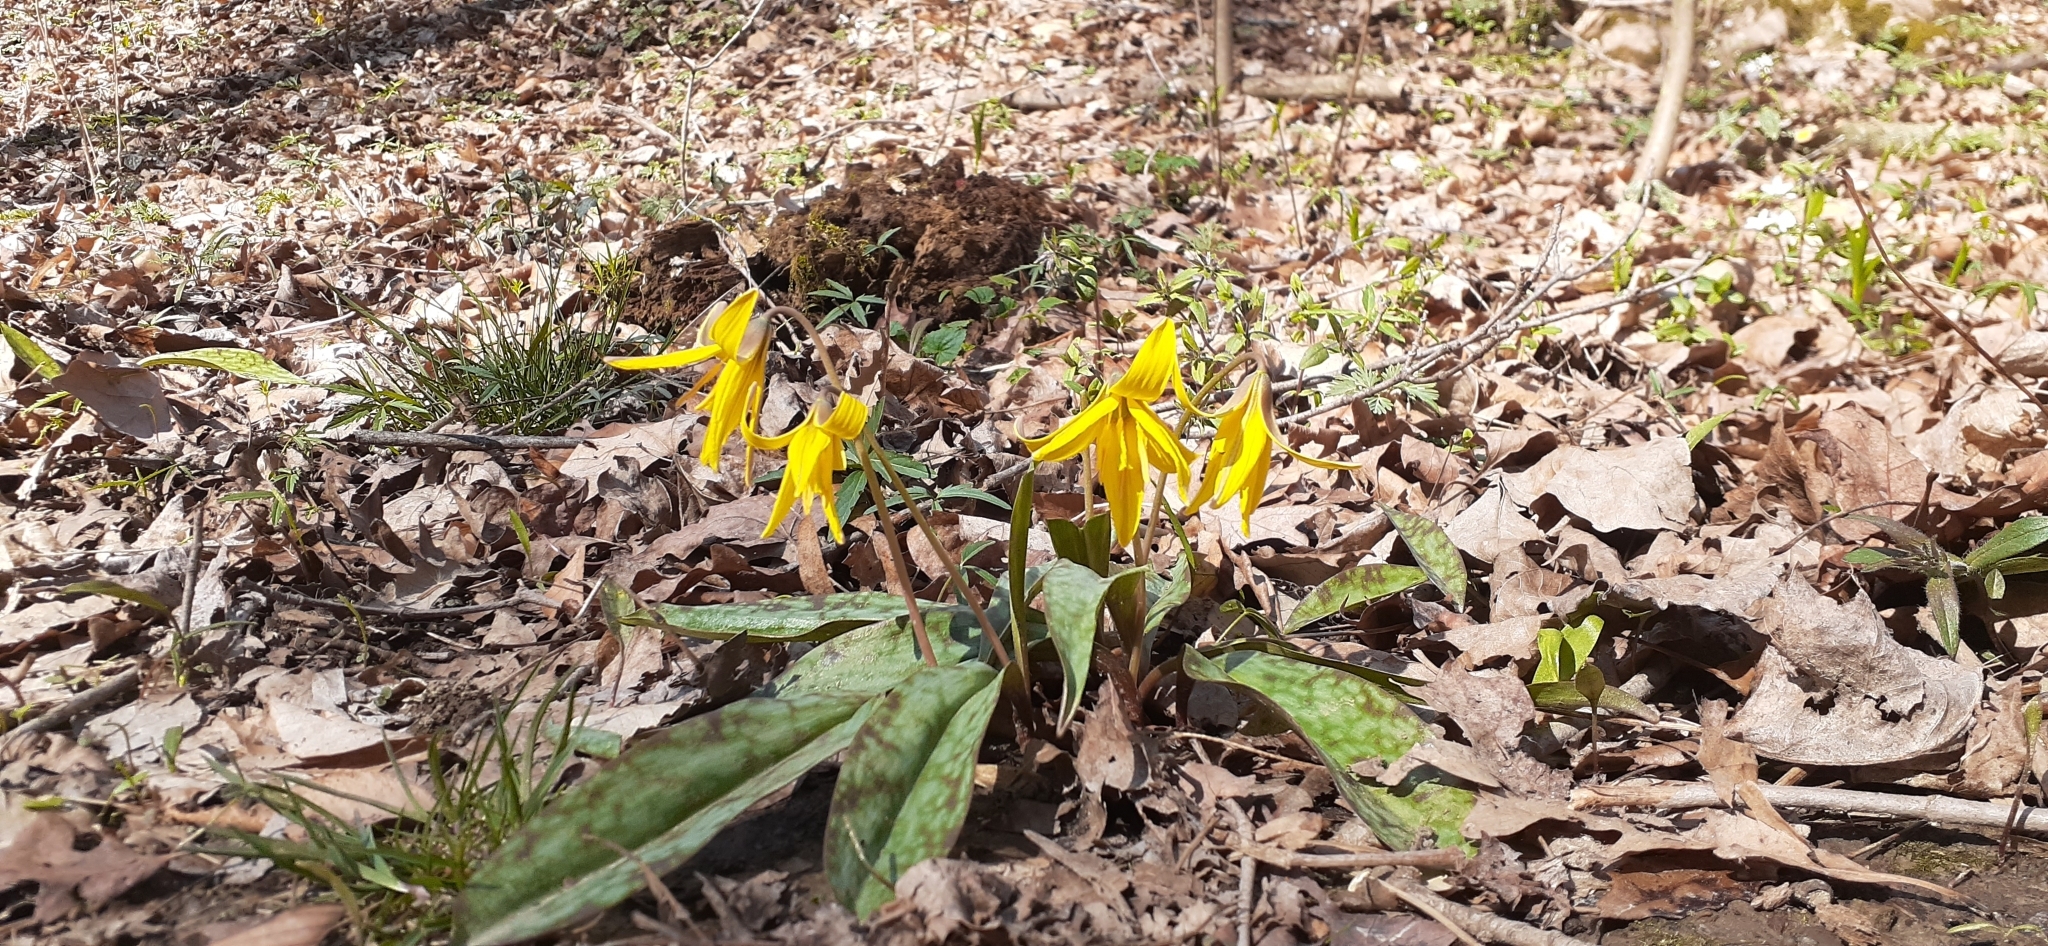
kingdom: Plantae
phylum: Tracheophyta
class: Liliopsida
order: Liliales
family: Liliaceae
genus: Erythronium
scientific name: Erythronium americanum
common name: Yellow adder's-tongue
